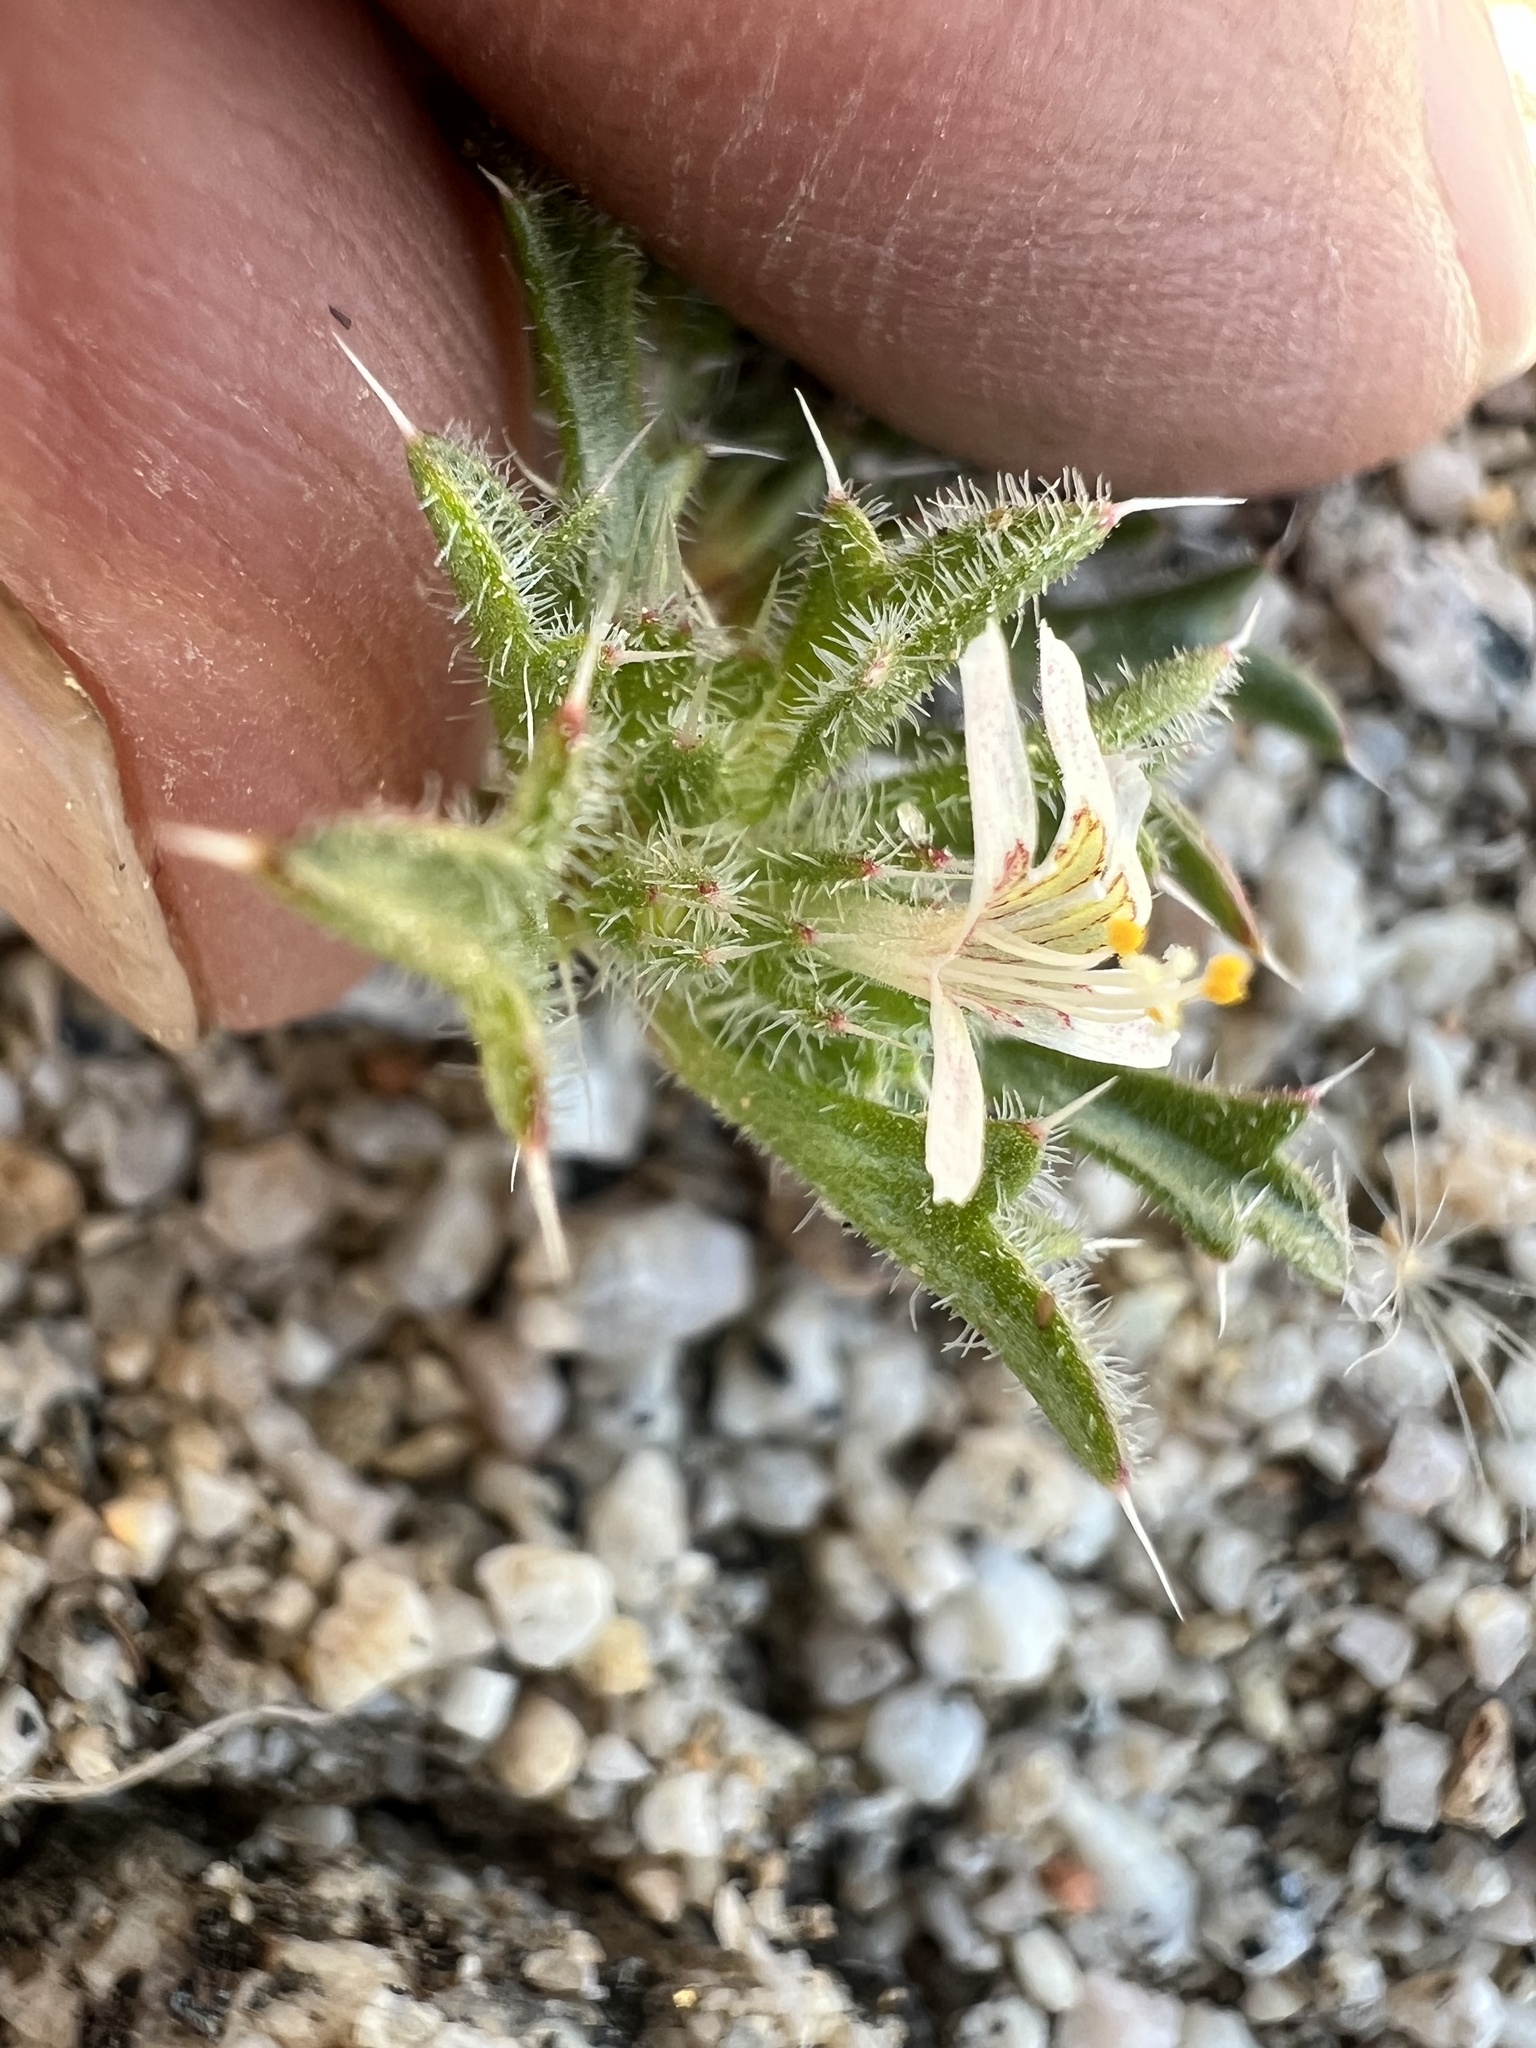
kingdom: Plantae
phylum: Tracheophyta
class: Magnoliopsida
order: Ericales
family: Polemoniaceae
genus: Loeseliastrum
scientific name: Loeseliastrum schottii
